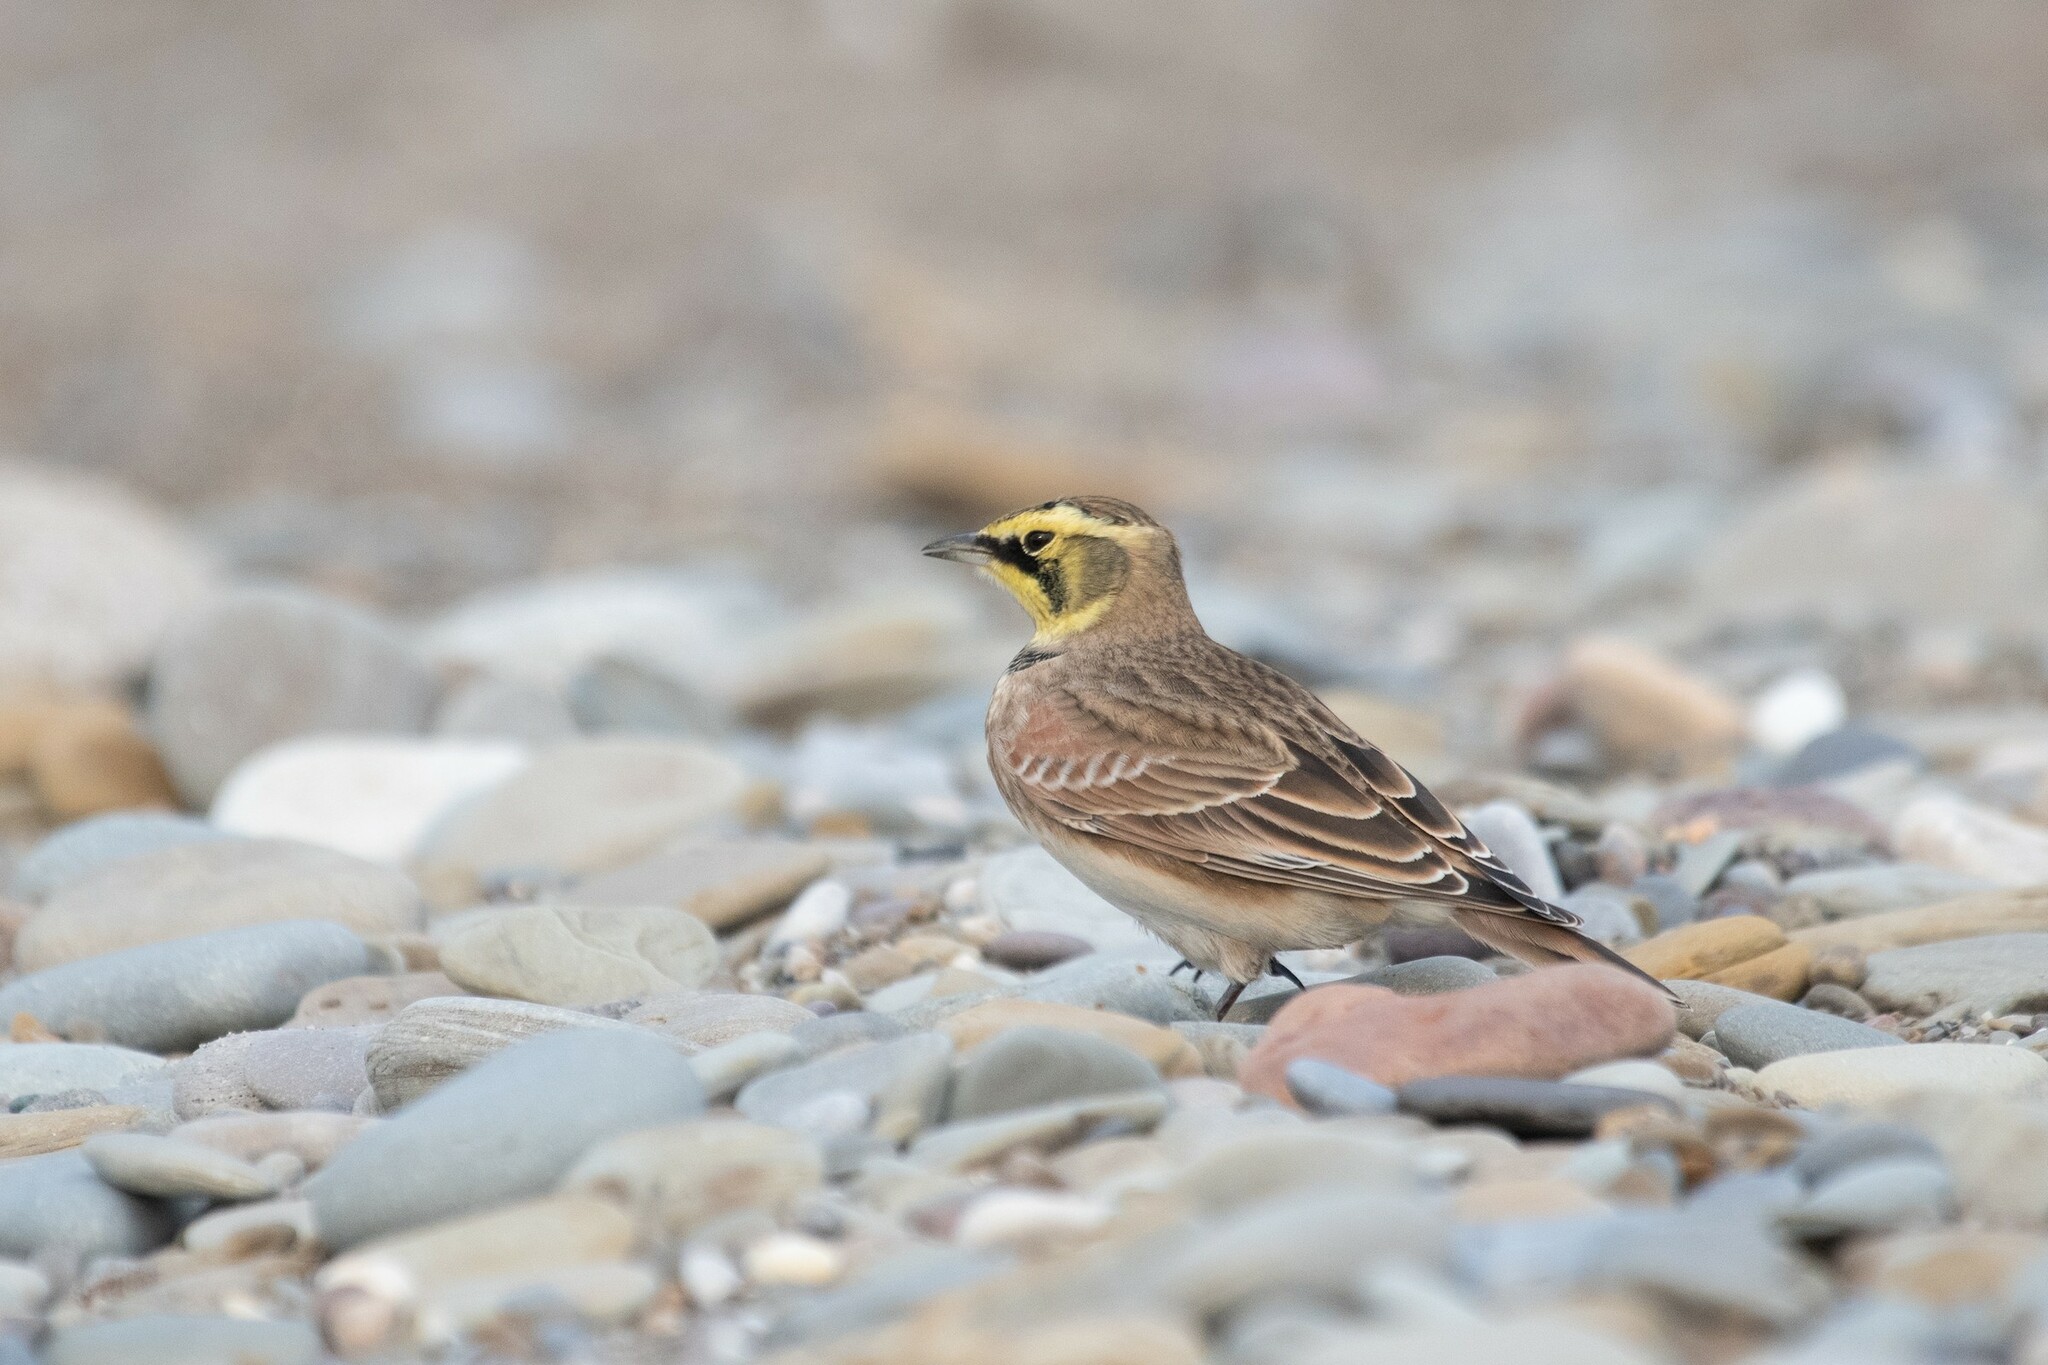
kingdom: Animalia
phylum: Chordata
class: Aves
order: Passeriformes
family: Alaudidae
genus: Eremophila
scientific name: Eremophila alpestris
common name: Horned lark
